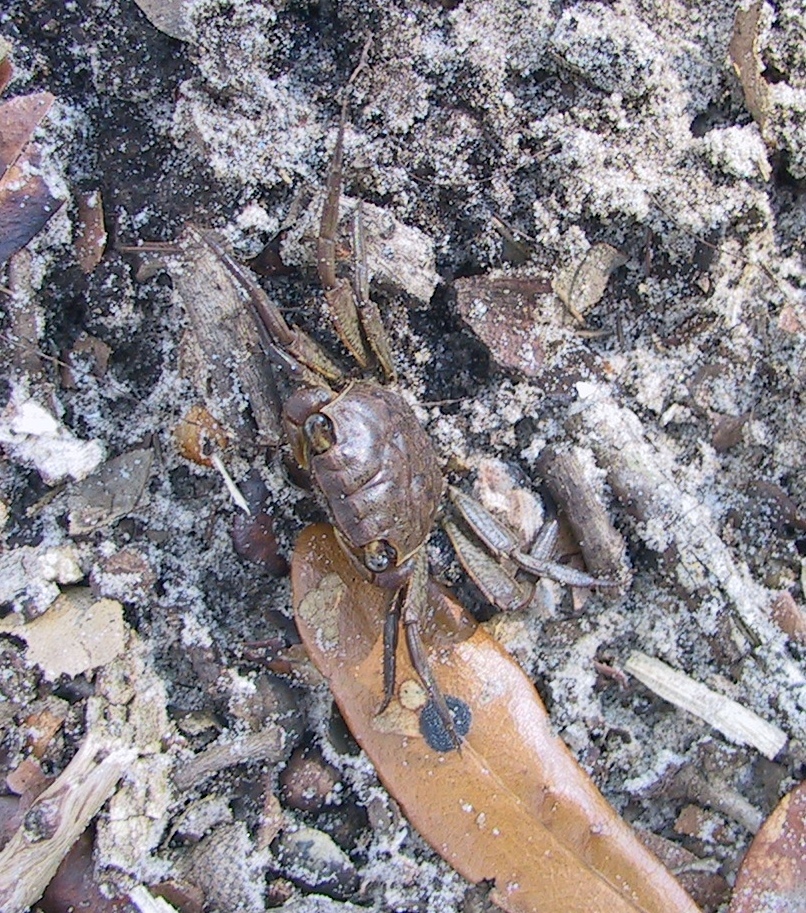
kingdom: Animalia
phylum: Arthropoda
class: Malacostraca
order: Decapoda
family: Sesarmidae
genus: Armases
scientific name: Armases cinereum
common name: Squareback marsh crab
